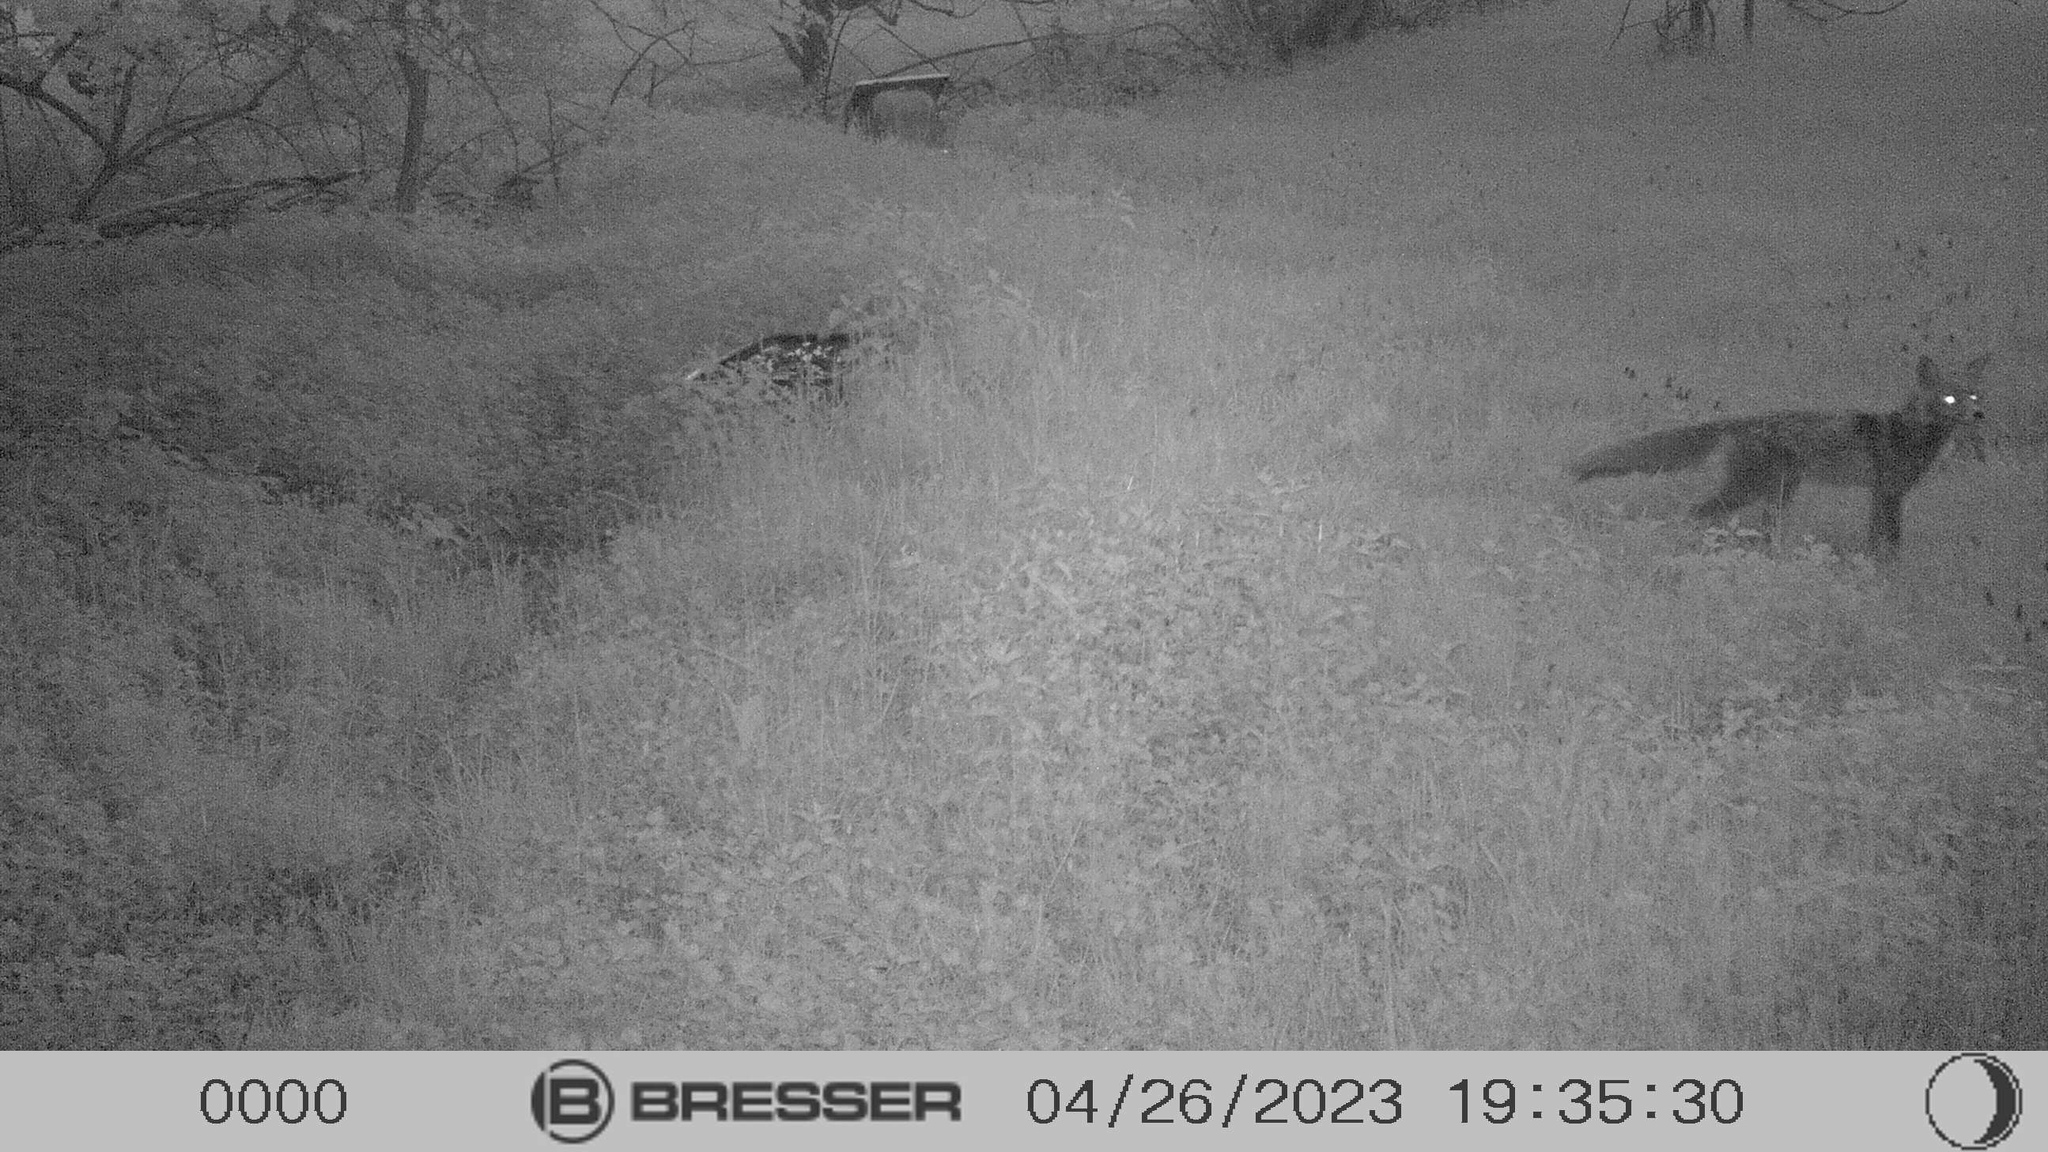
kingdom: Animalia
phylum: Chordata
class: Mammalia
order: Carnivora
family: Canidae
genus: Vulpes
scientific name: Vulpes vulpes
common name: Red fox
